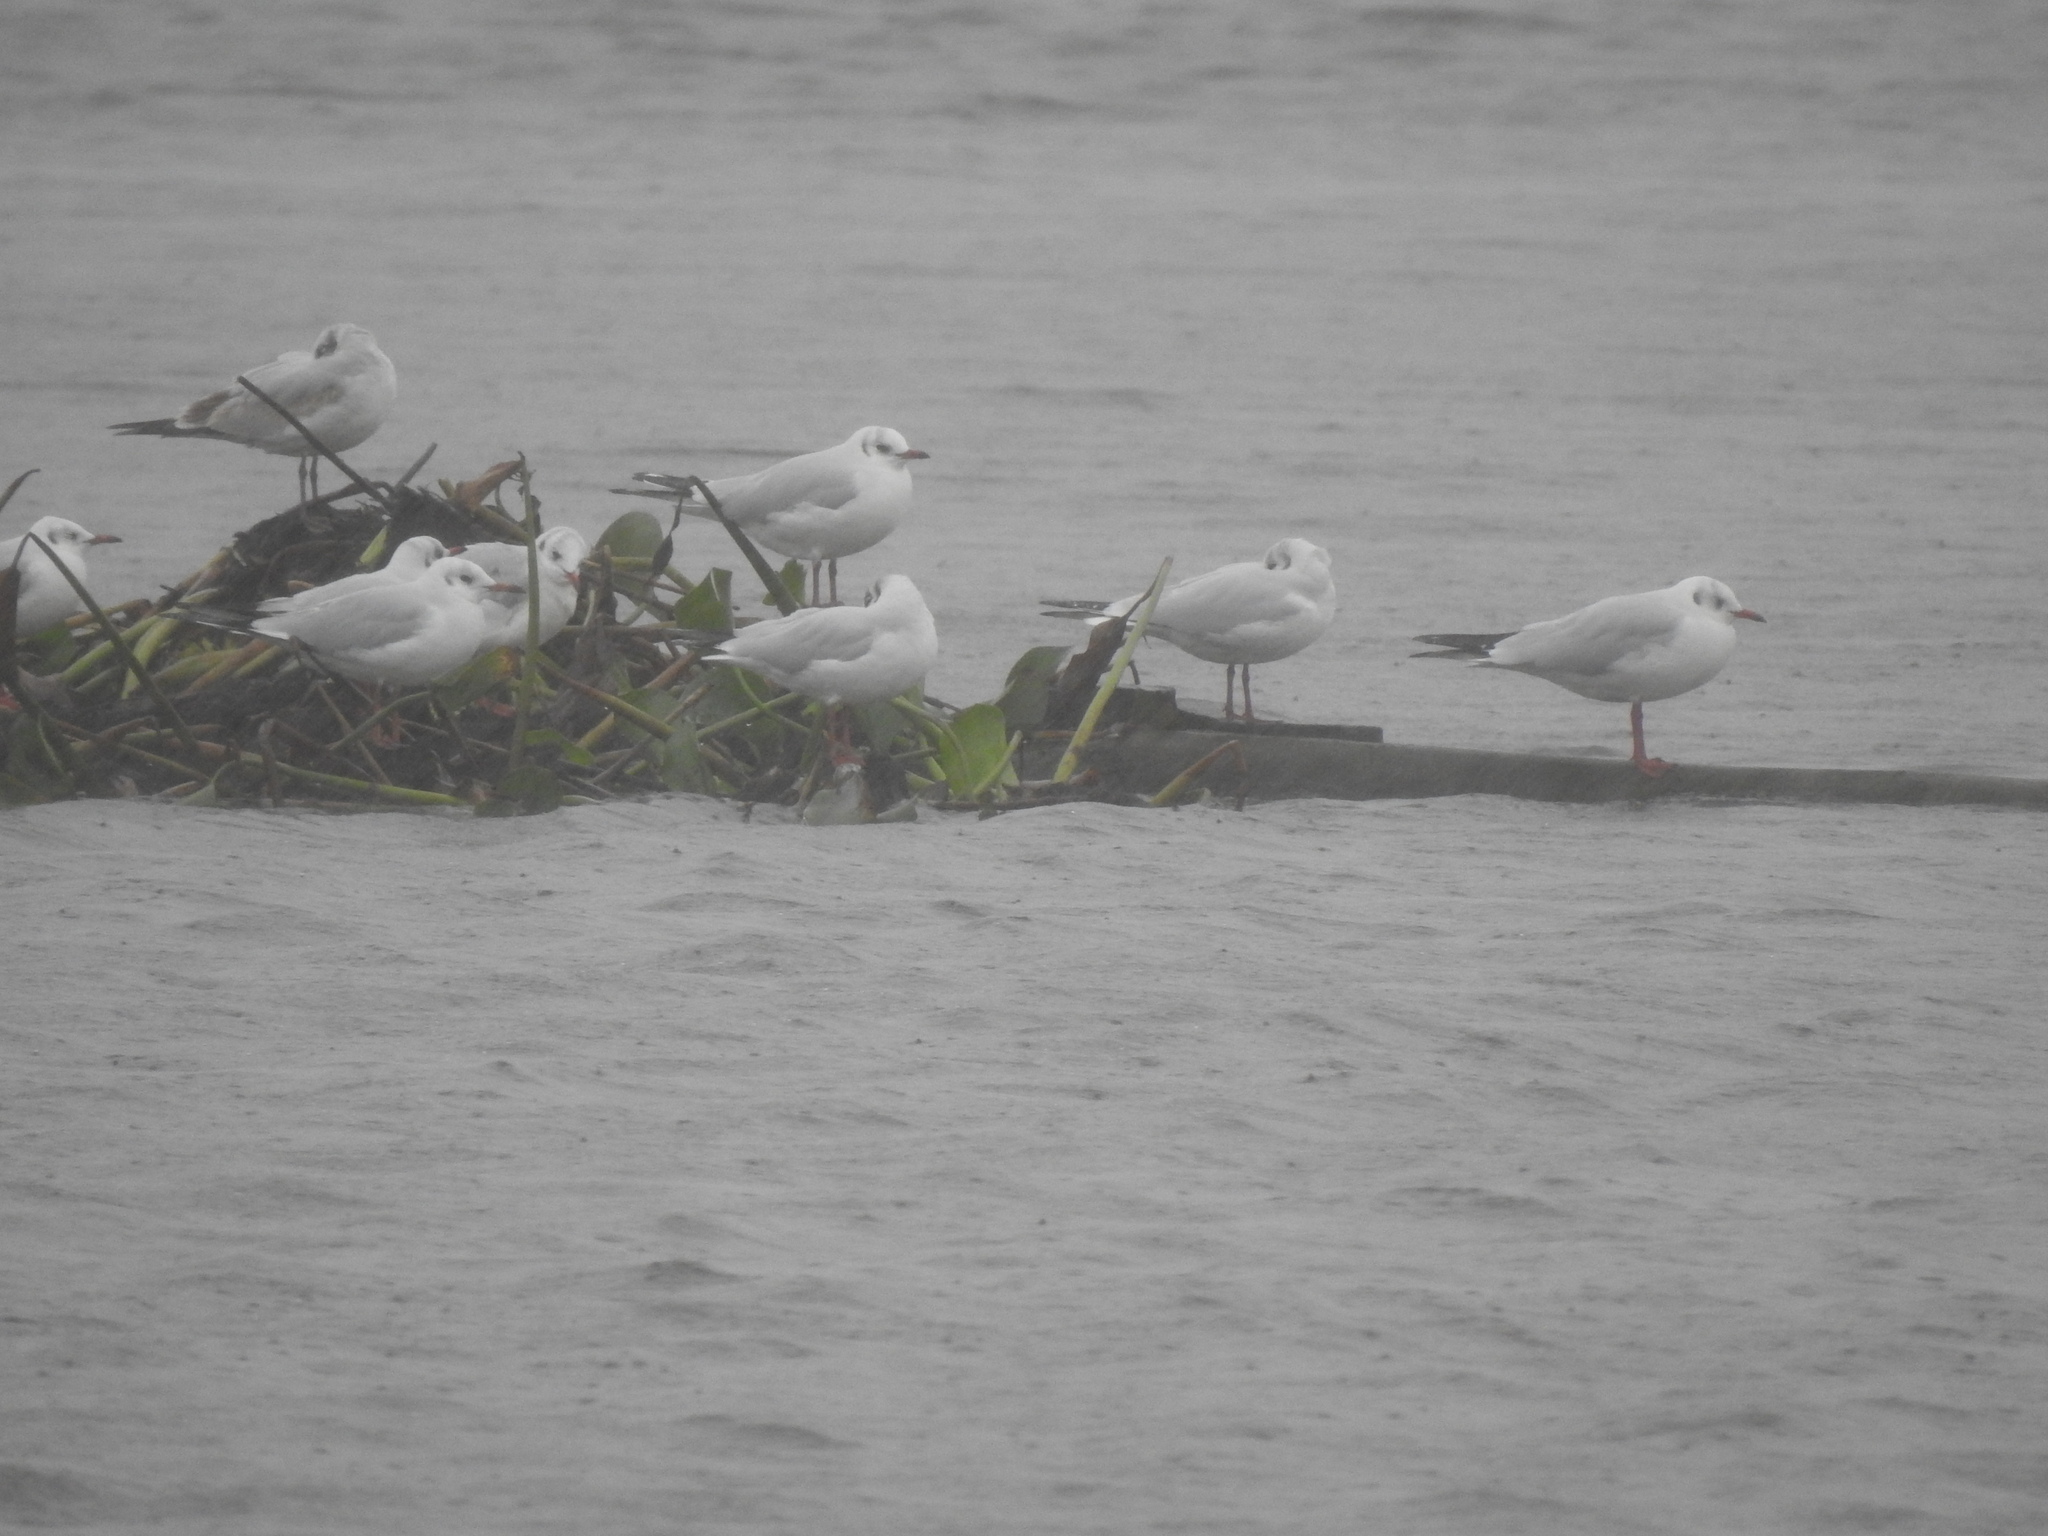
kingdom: Animalia
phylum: Chordata
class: Aves
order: Charadriiformes
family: Laridae
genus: Chroicocephalus
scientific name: Chroicocephalus ridibundus
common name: Black-headed gull
